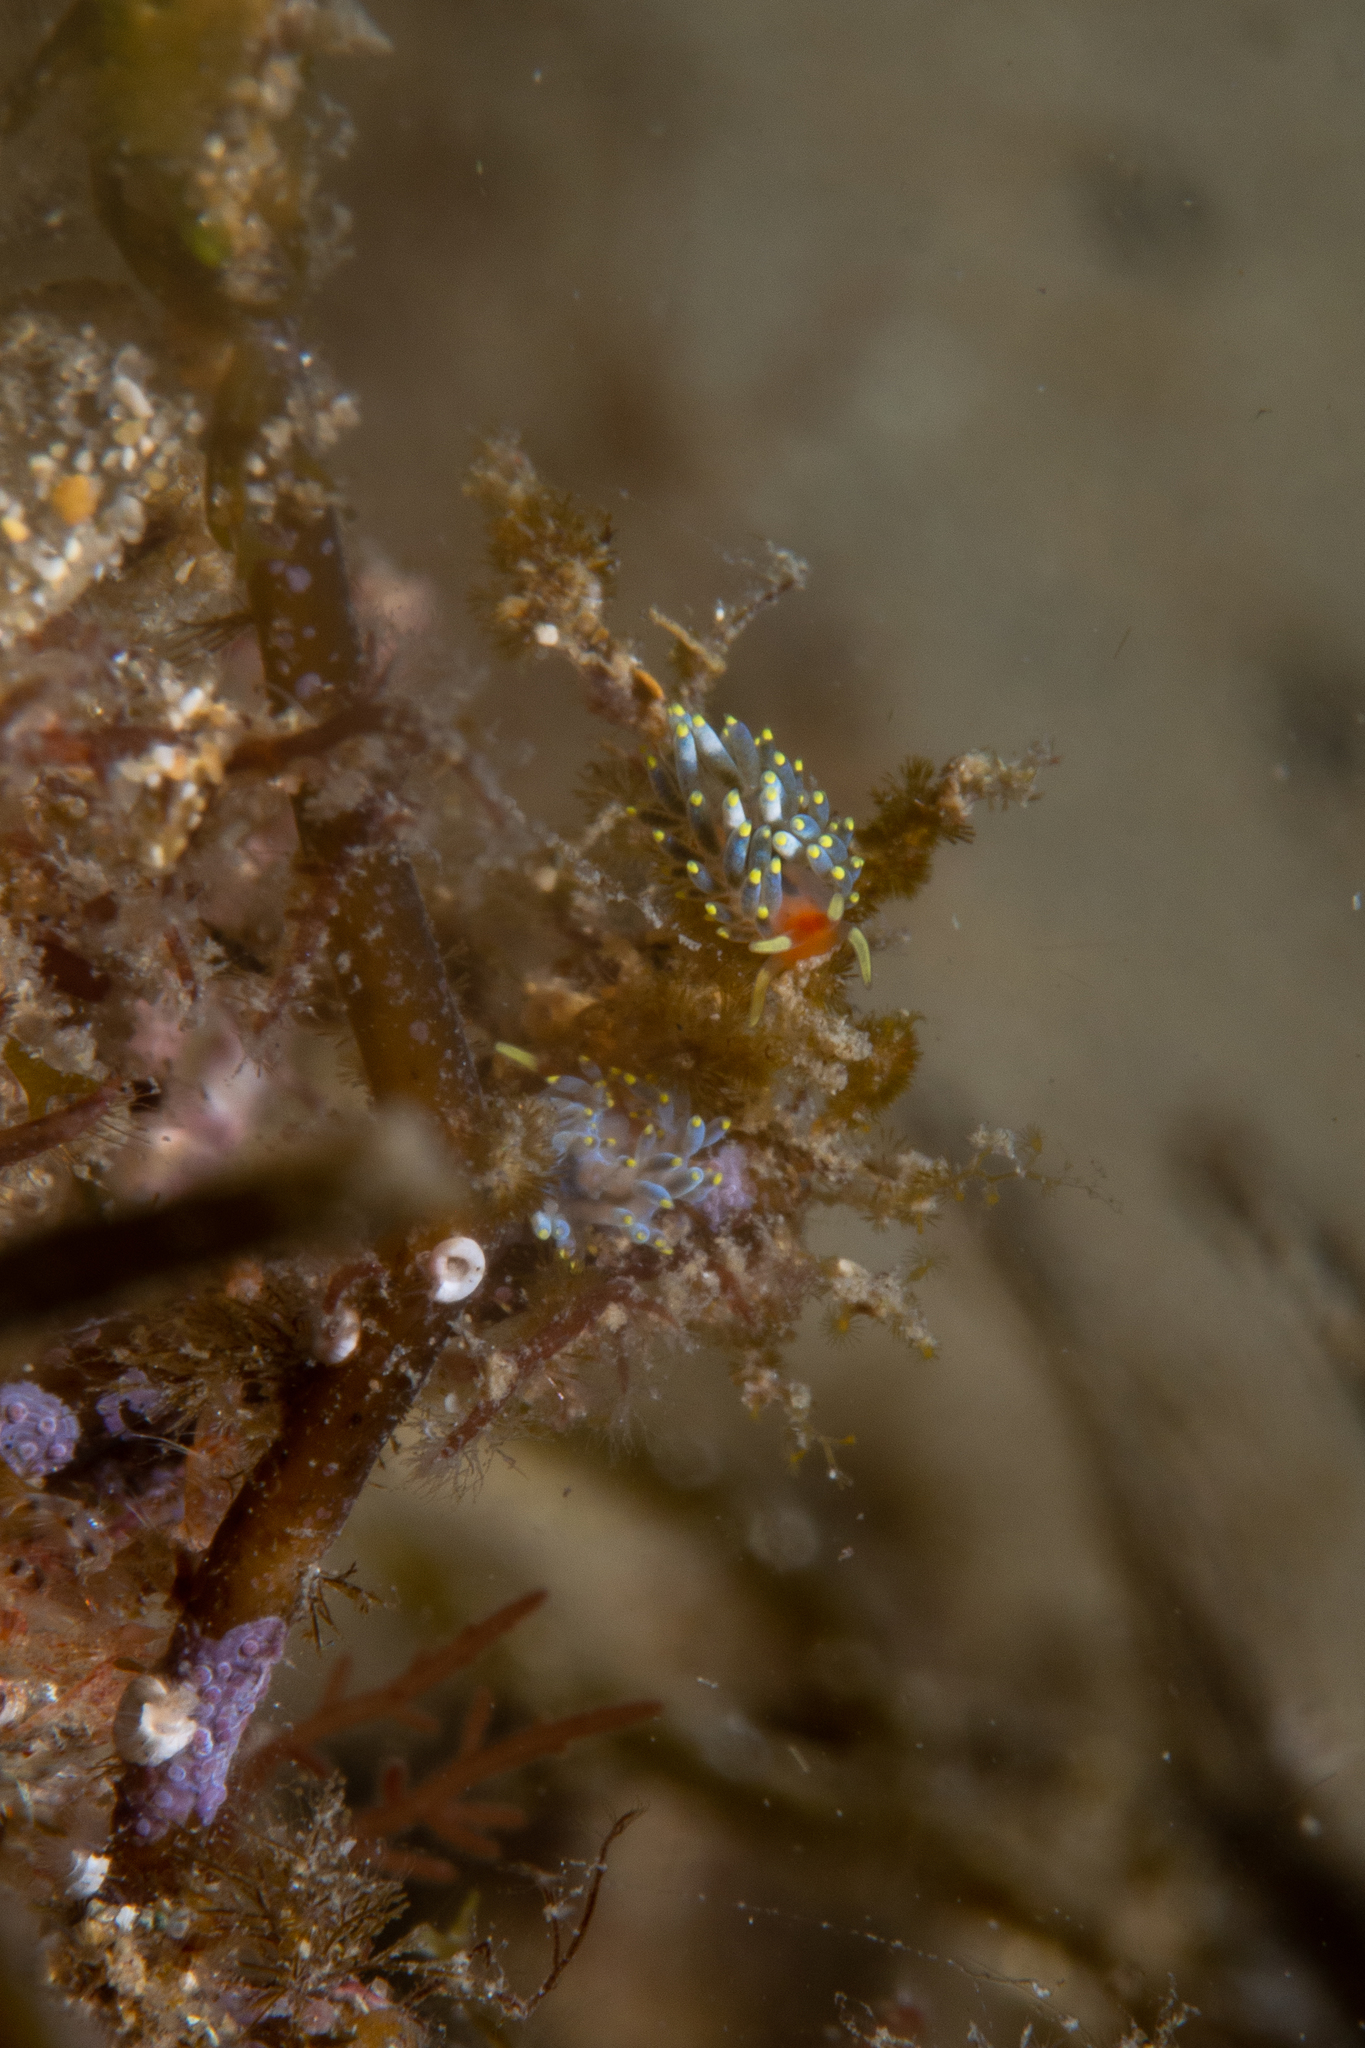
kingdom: Animalia
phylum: Mollusca
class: Gastropoda
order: Nudibranchia
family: Trinchesiidae
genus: Trinchesia
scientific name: Trinchesia catachroma
